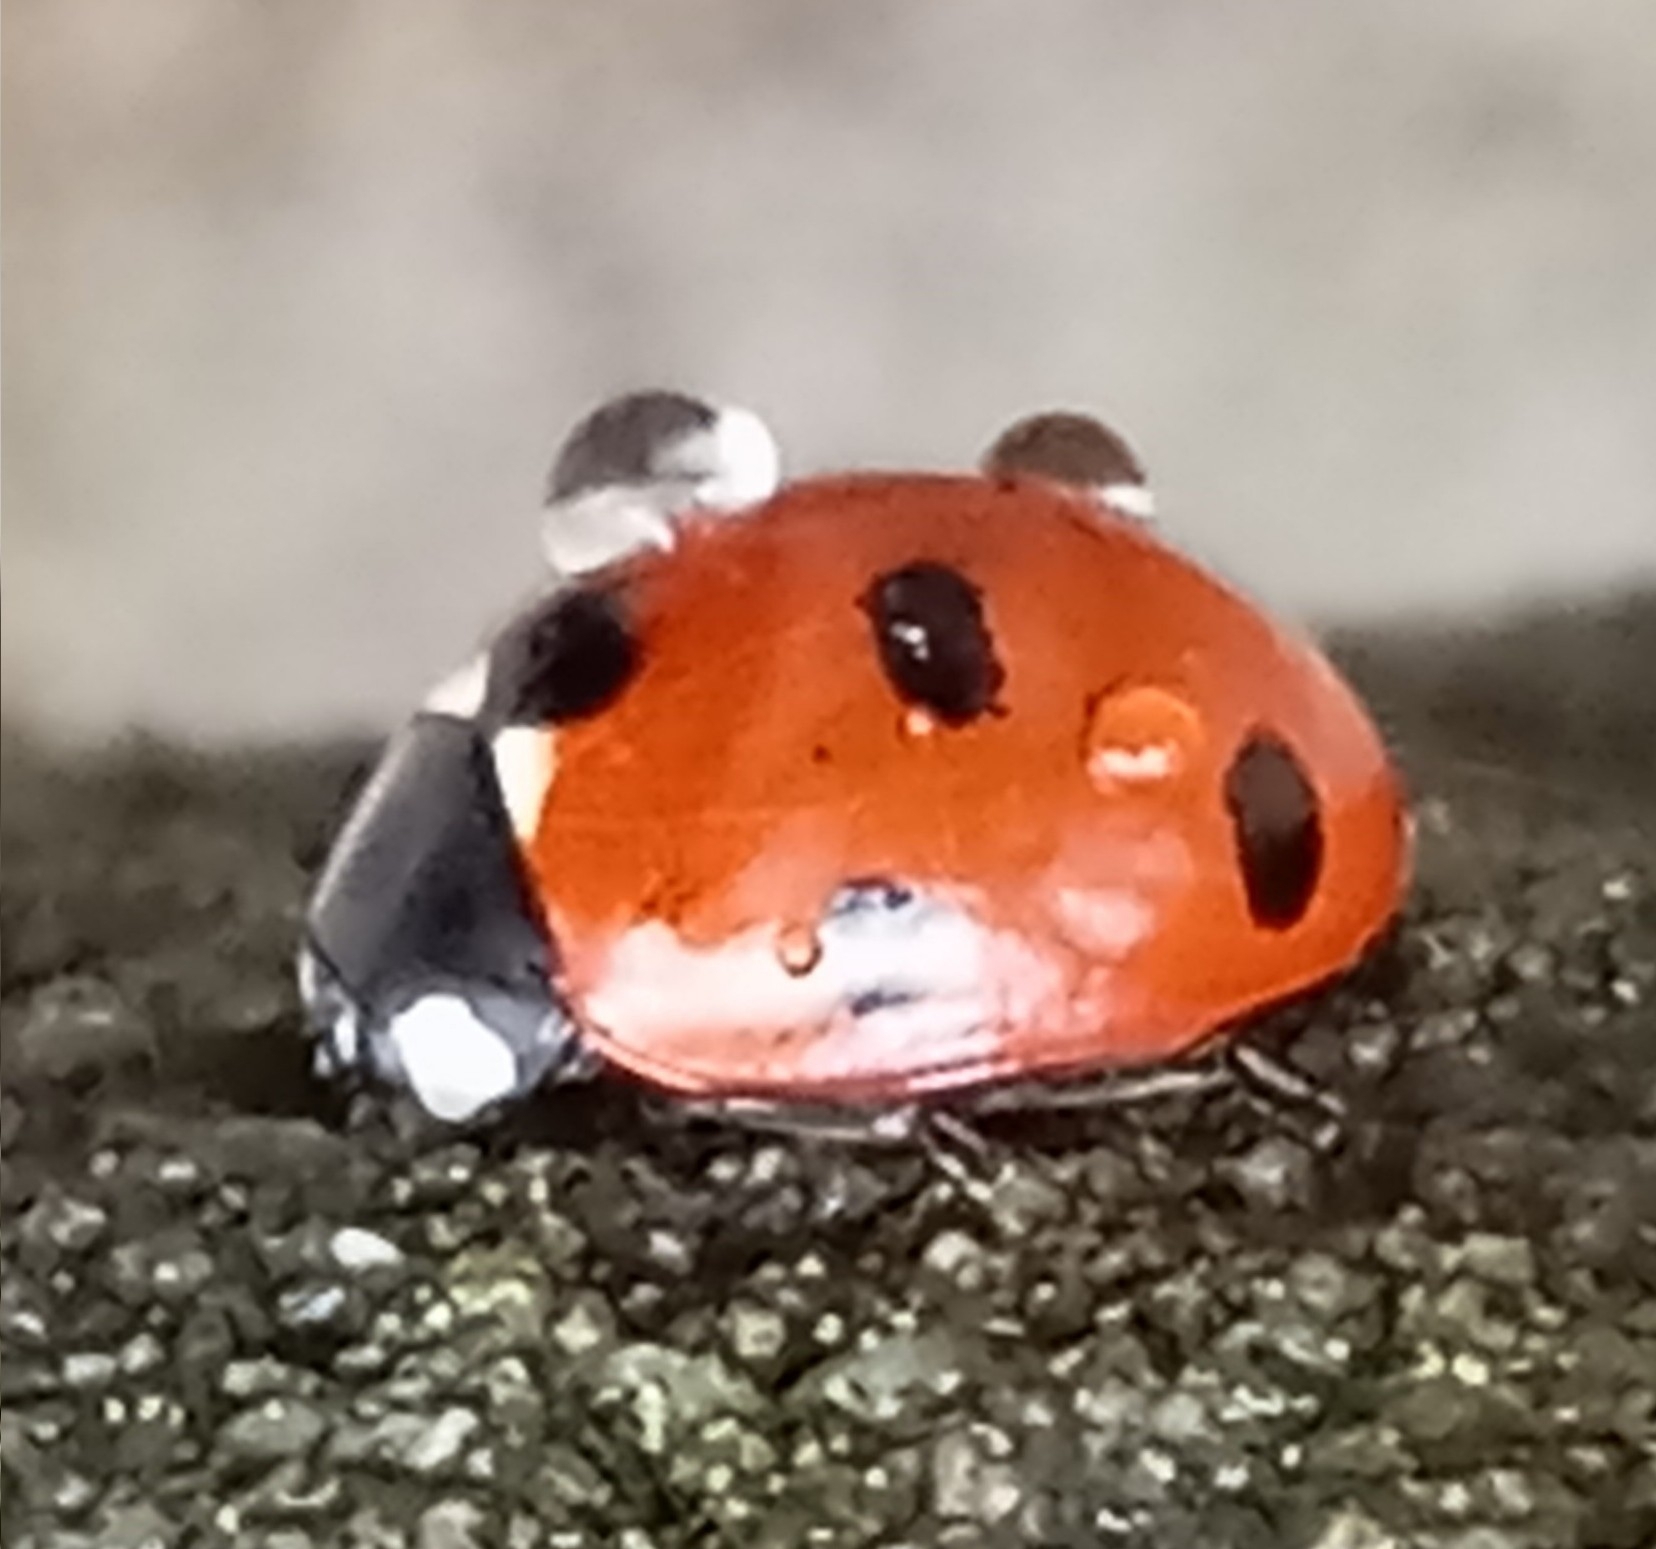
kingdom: Animalia
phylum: Arthropoda
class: Insecta
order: Coleoptera
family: Coccinellidae
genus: Coccinella
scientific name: Coccinella septempunctata
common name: Sevenspotted lady beetle
